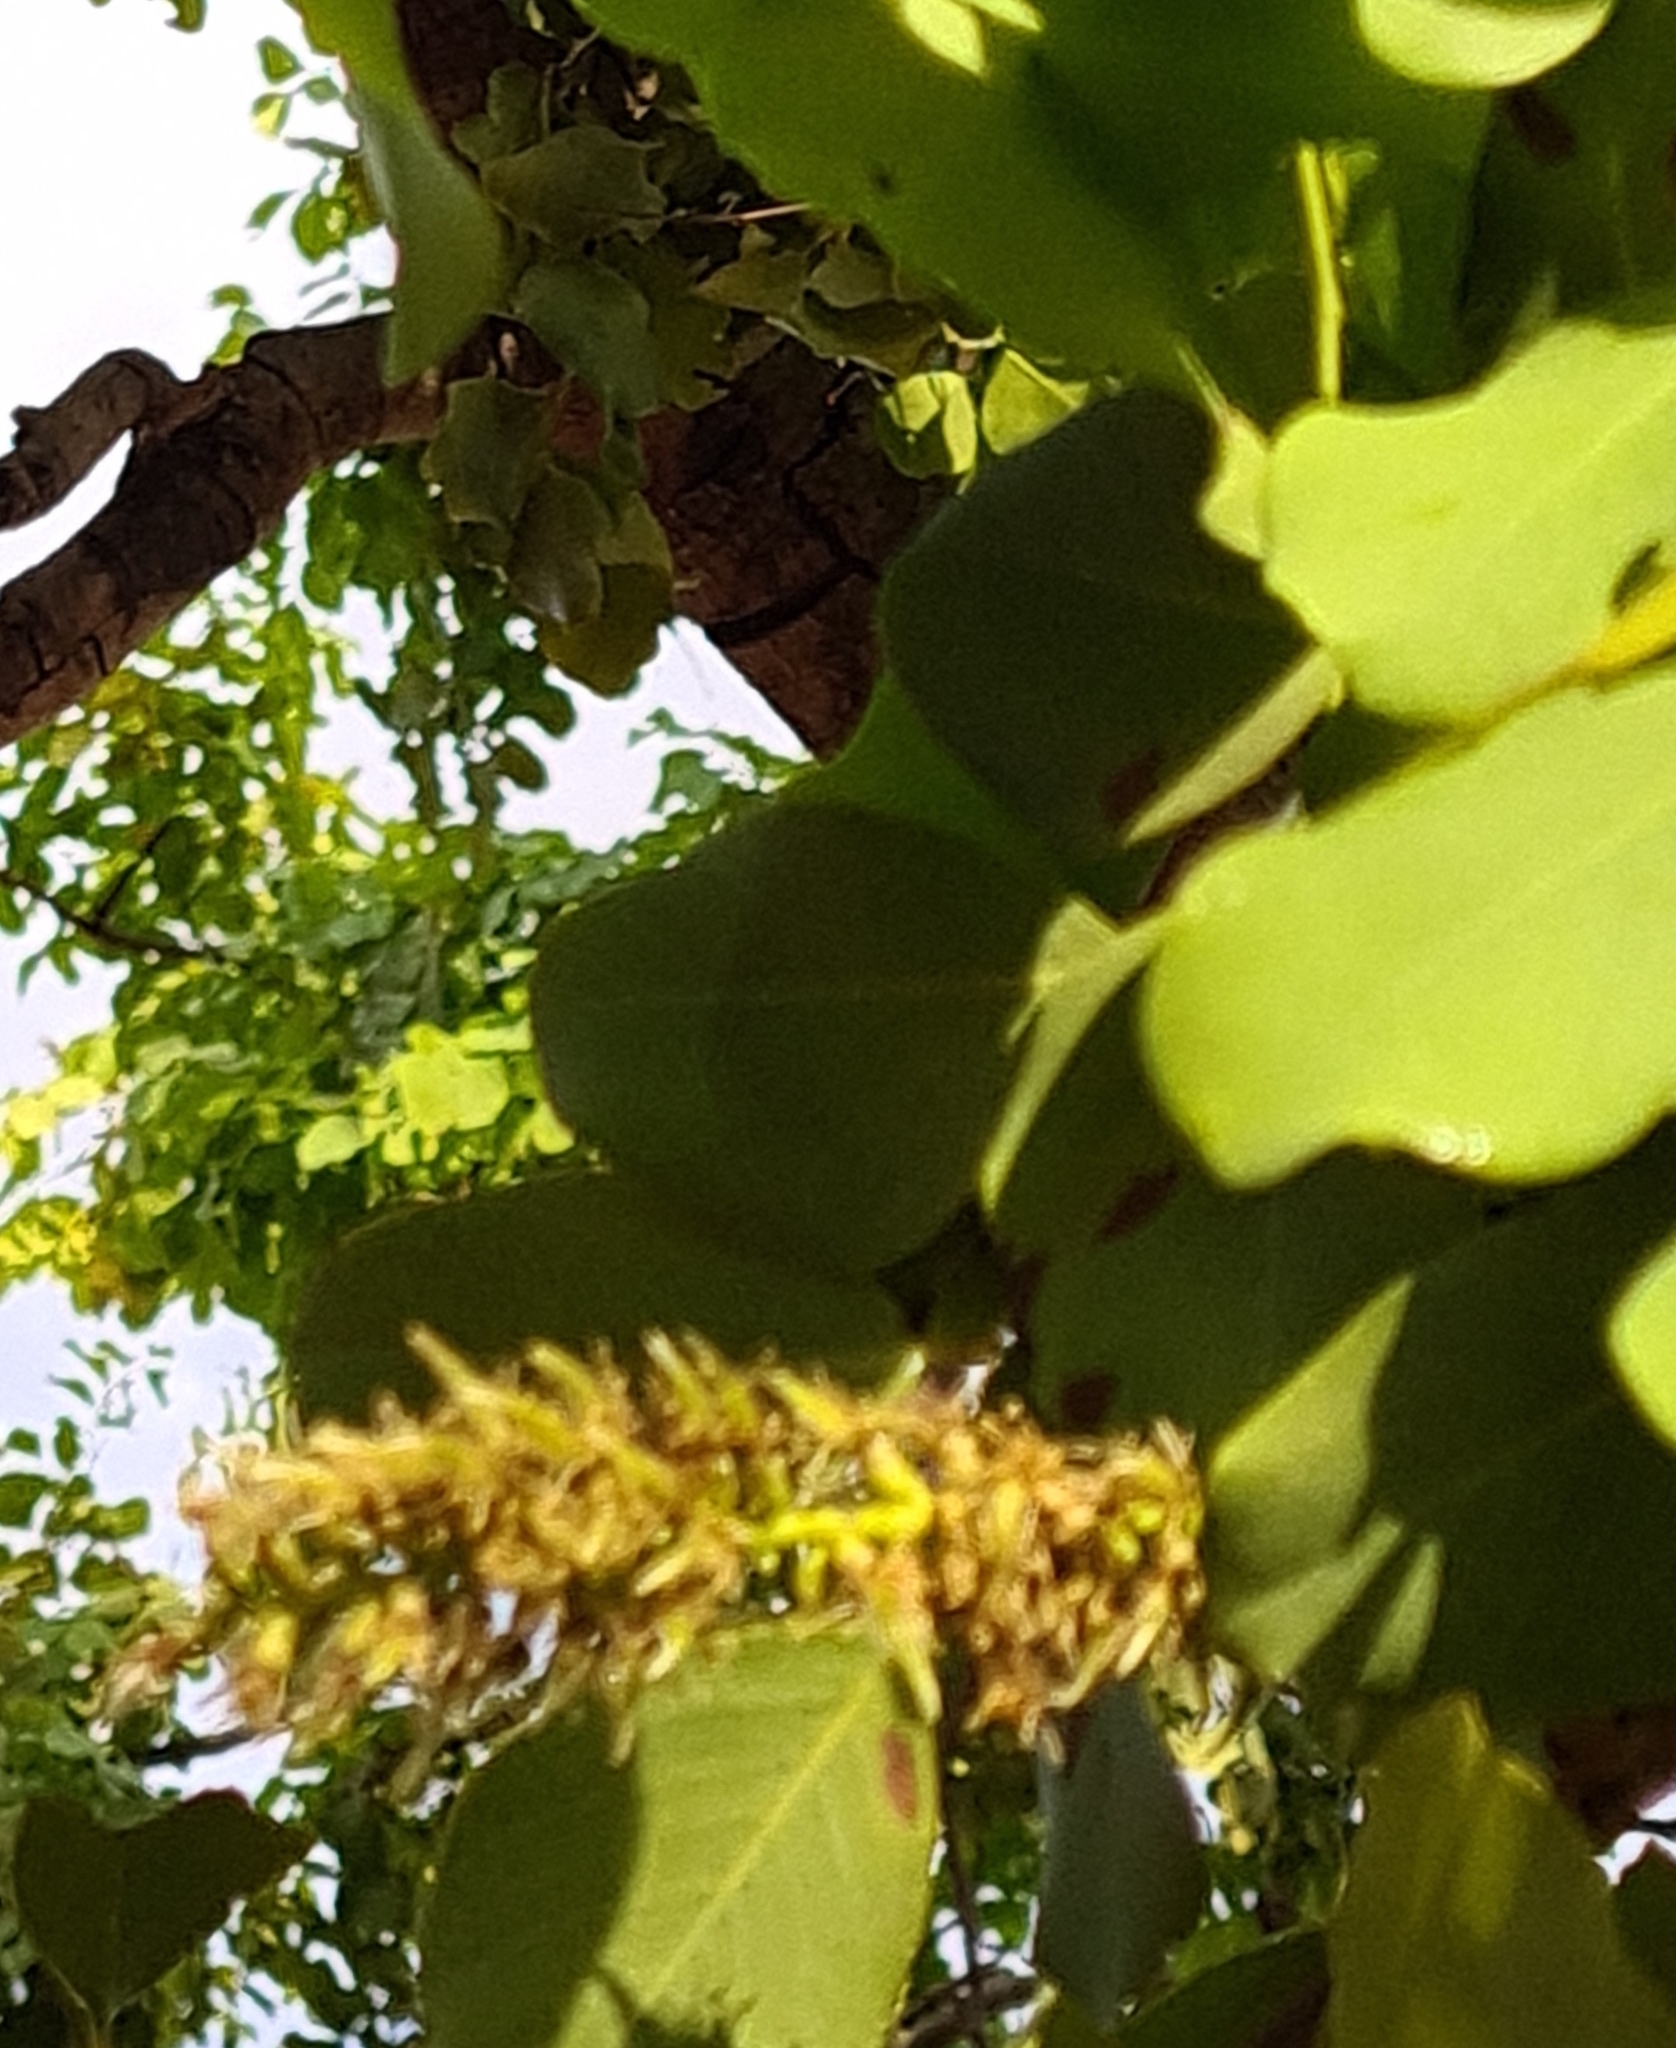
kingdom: Plantae
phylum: Tracheophyta
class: Magnoliopsida
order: Fabales
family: Fabaceae
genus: Erythrophleum
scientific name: Erythrophleum chlorostachys
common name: Black-bean
